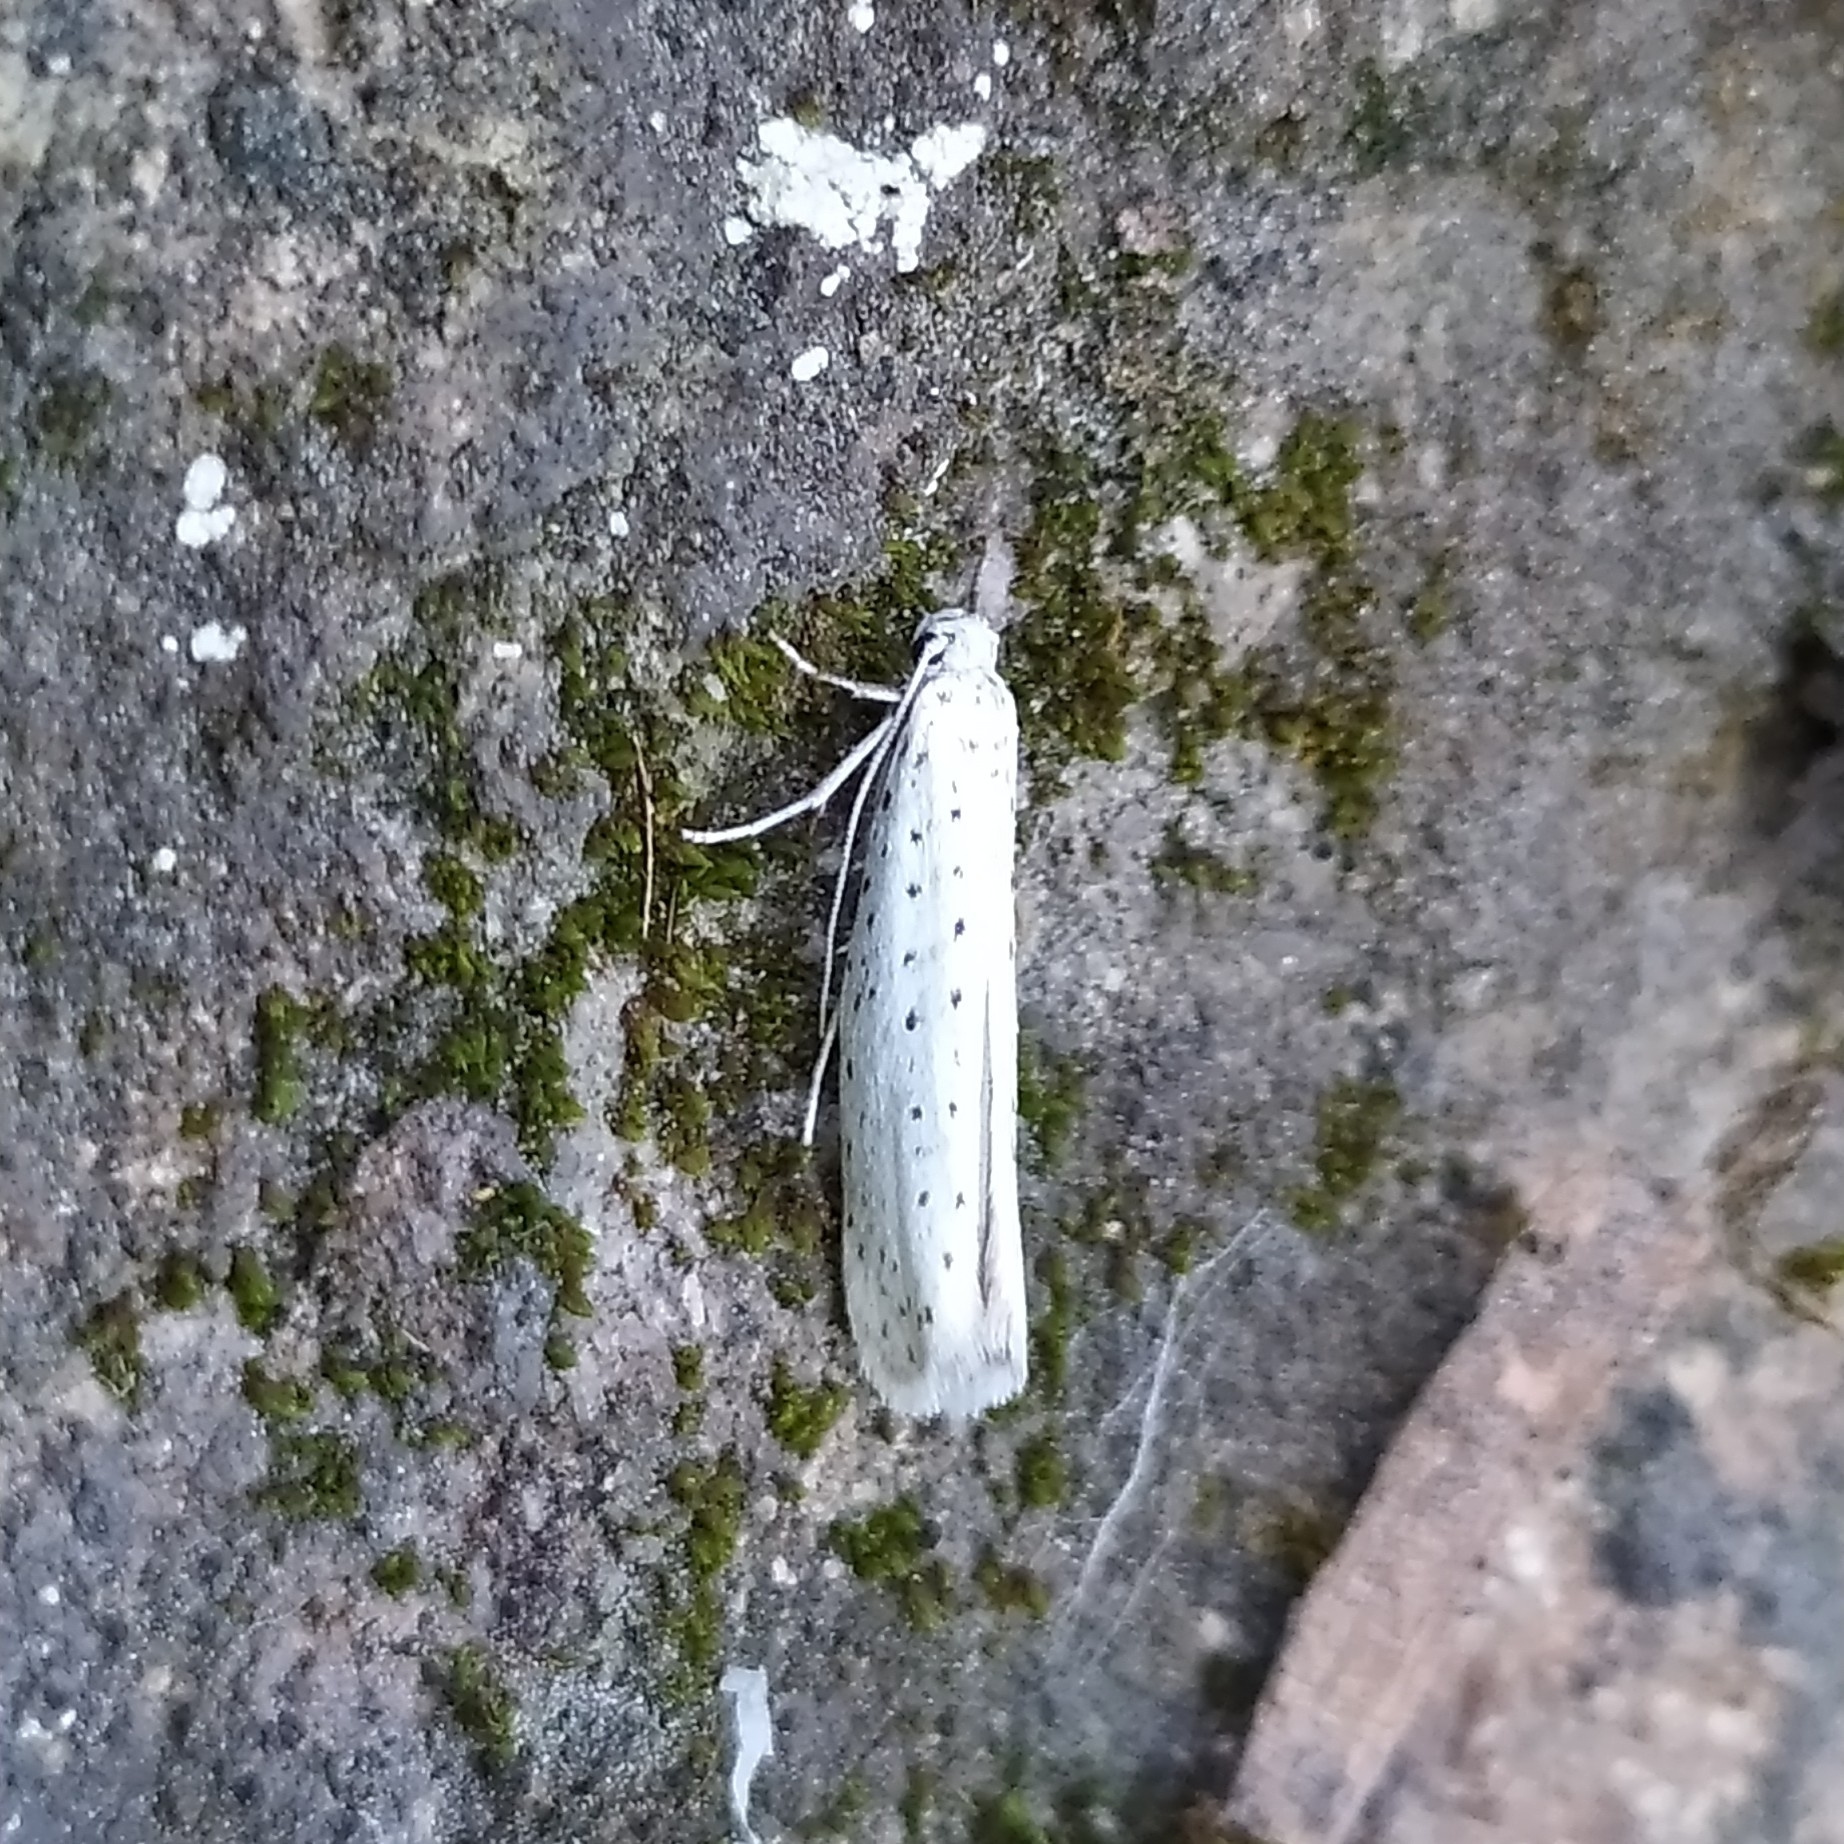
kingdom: Animalia
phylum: Arthropoda
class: Insecta
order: Lepidoptera
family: Yponomeutidae
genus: Yponomeuta
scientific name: Yponomeuta evonymella
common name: Bird-cherry ermine
